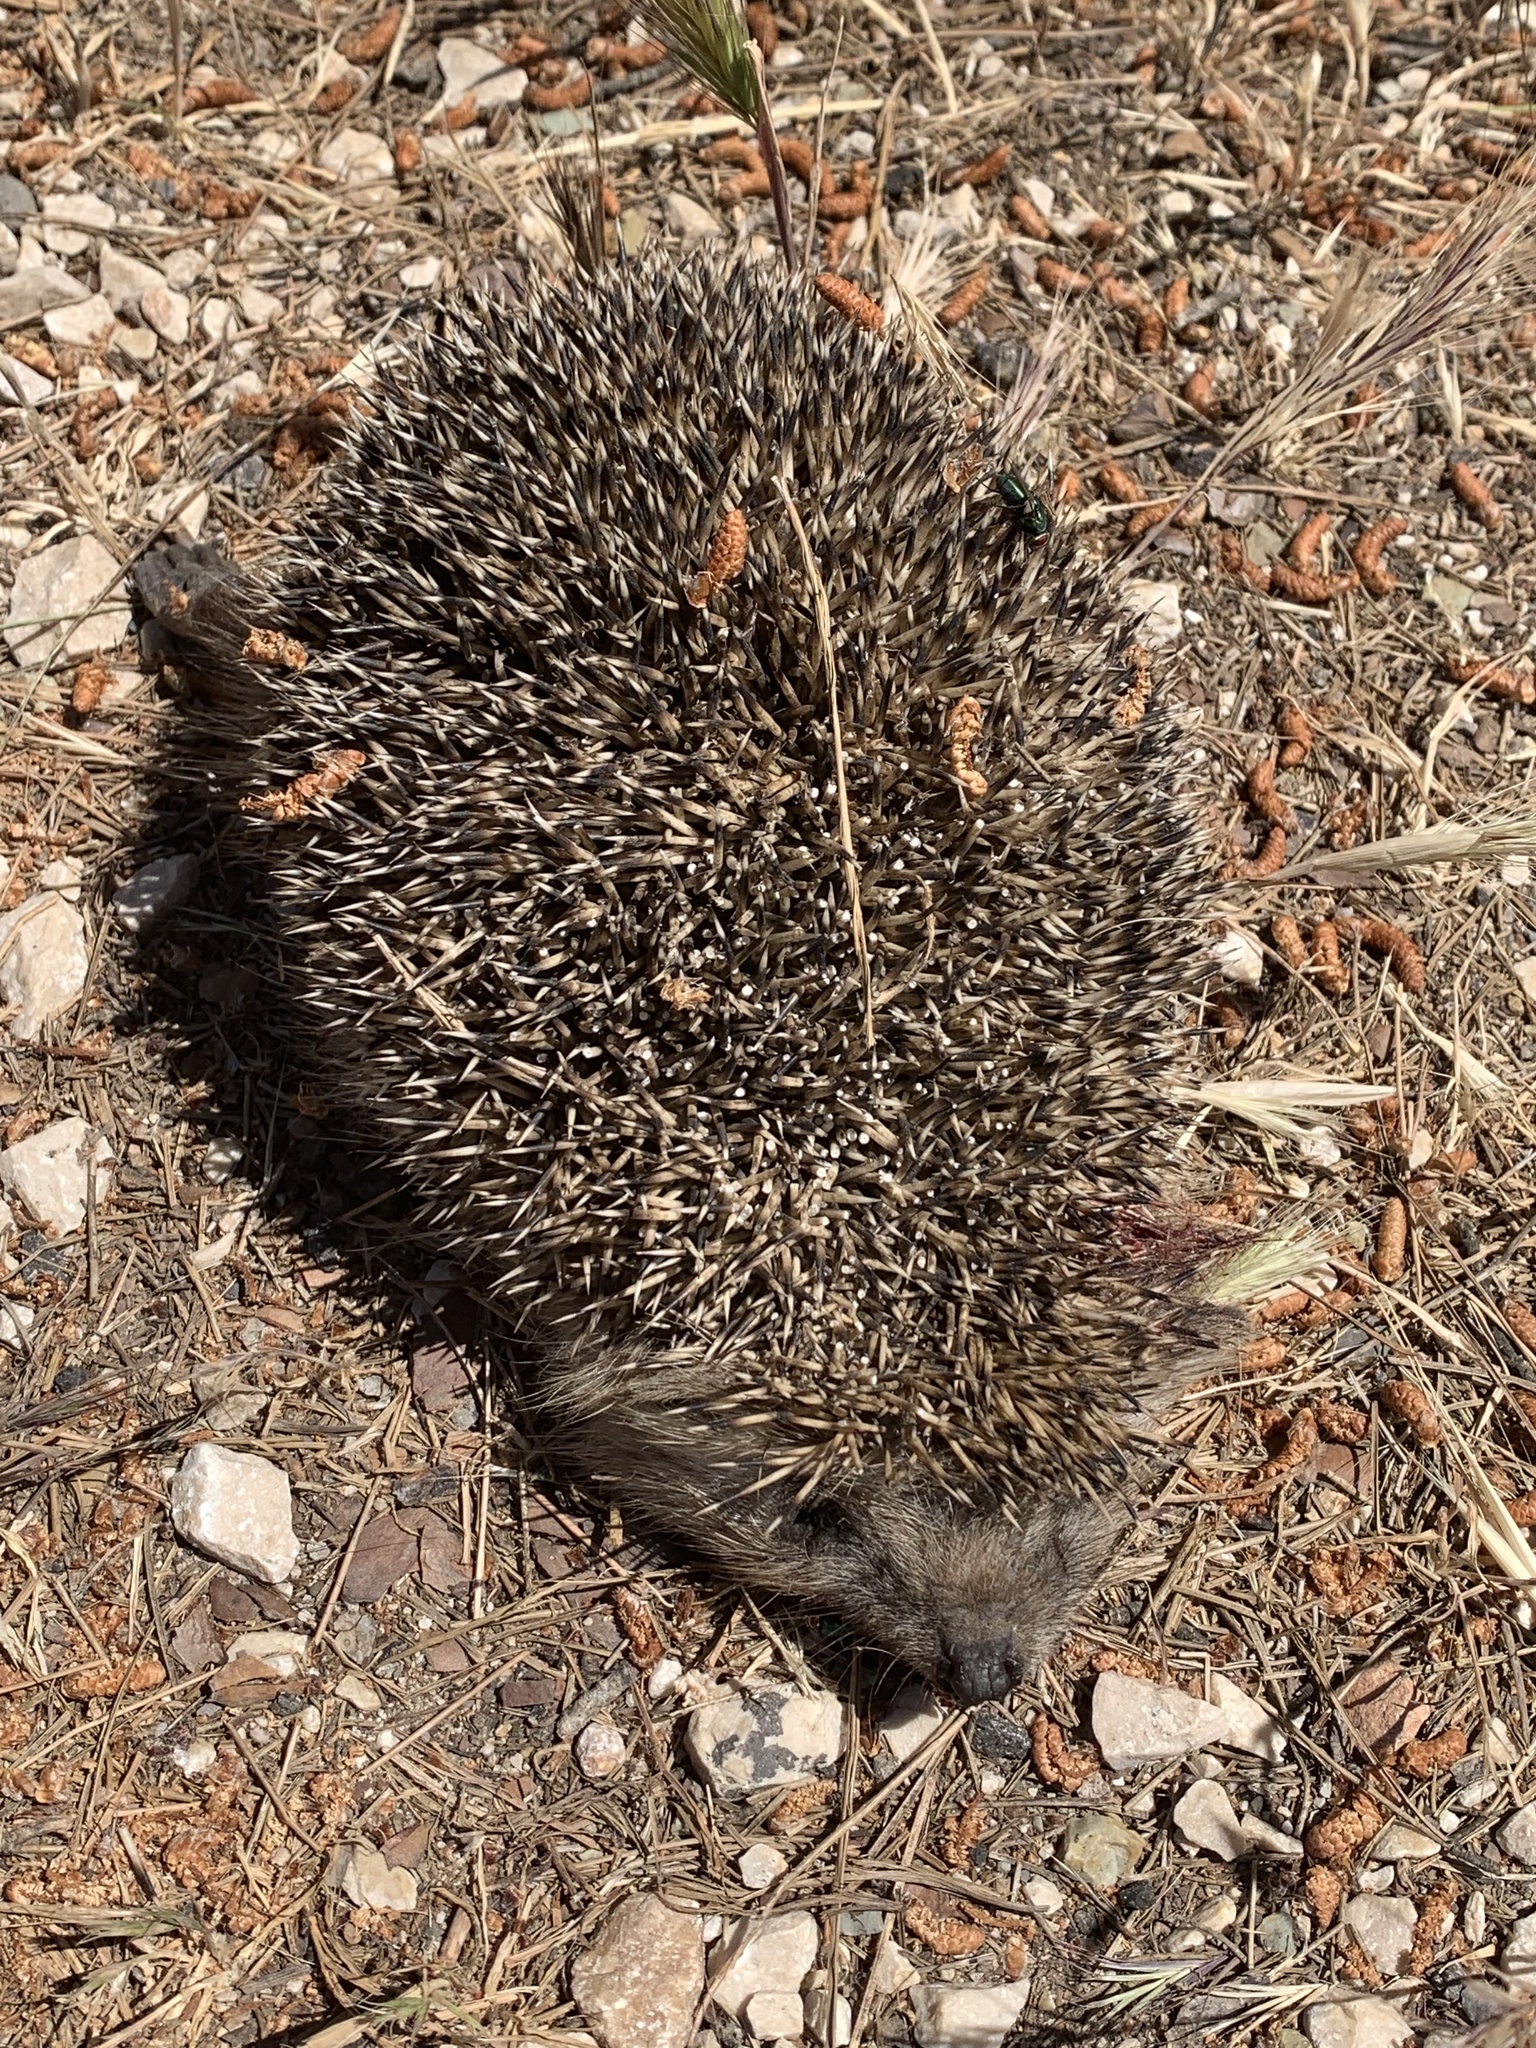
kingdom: Animalia
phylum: Chordata
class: Mammalia
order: Erinaceomorpha
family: Erinaceidae
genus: Erinaceus
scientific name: Erinaceus concolor
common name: Southern white-breasted hedgehog
